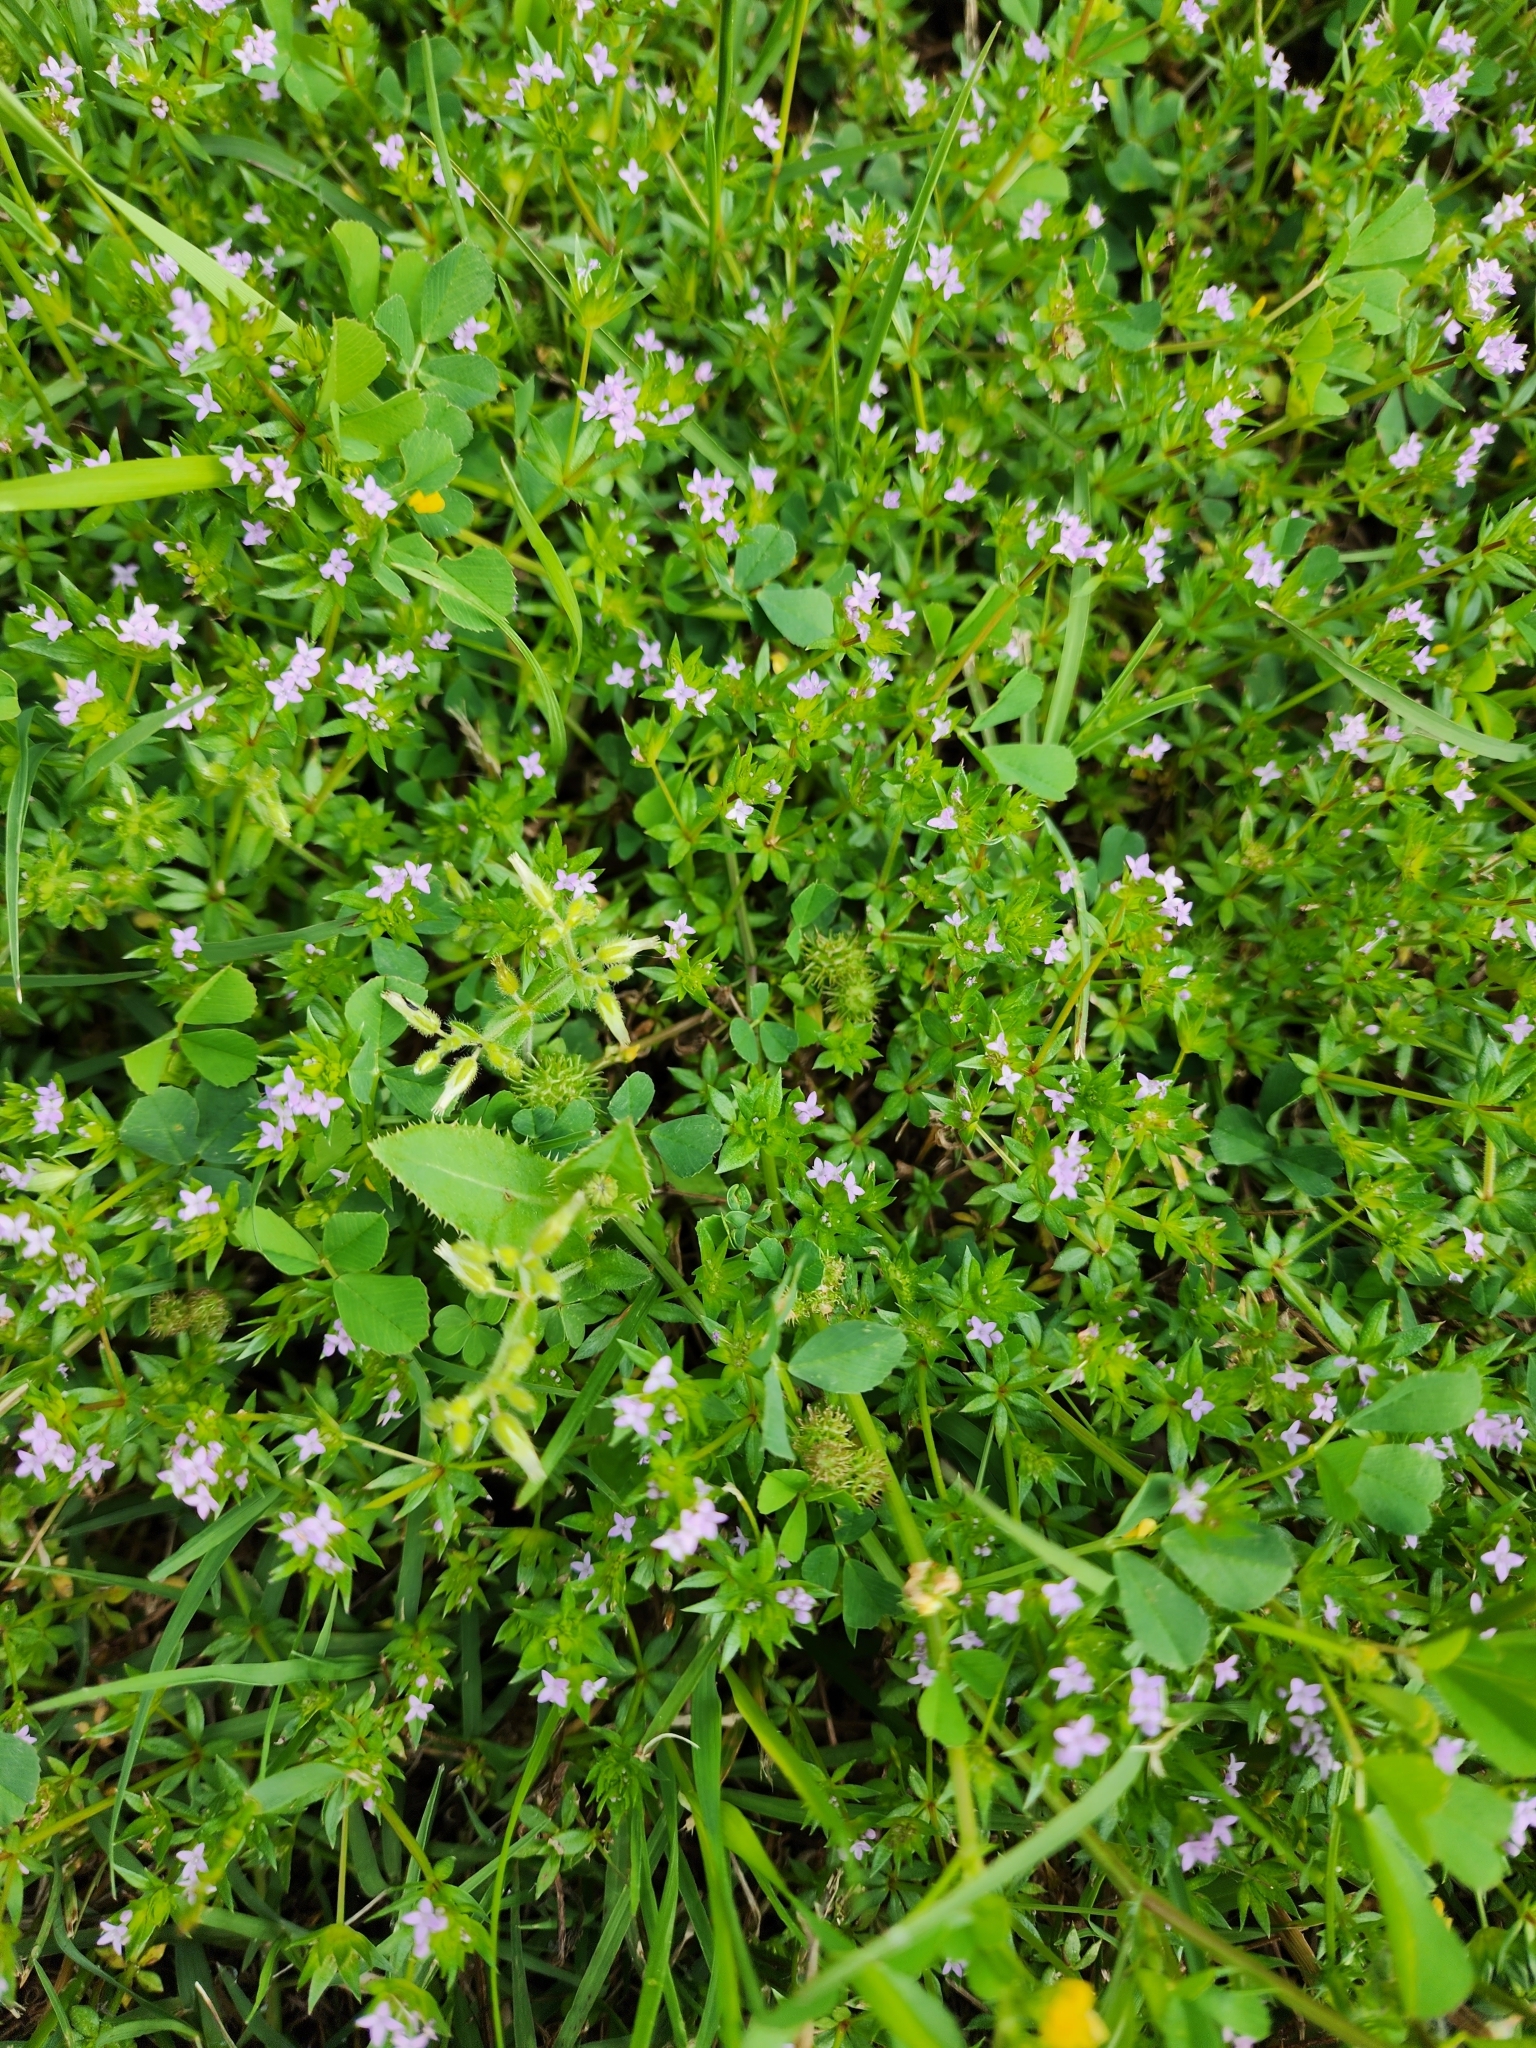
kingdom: Plantae
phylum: Tracheophyta
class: Magnoliopsida
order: Gentianales
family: Rubiaceae
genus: Sherardia
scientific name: Sherardia arvensis
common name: Field madder
